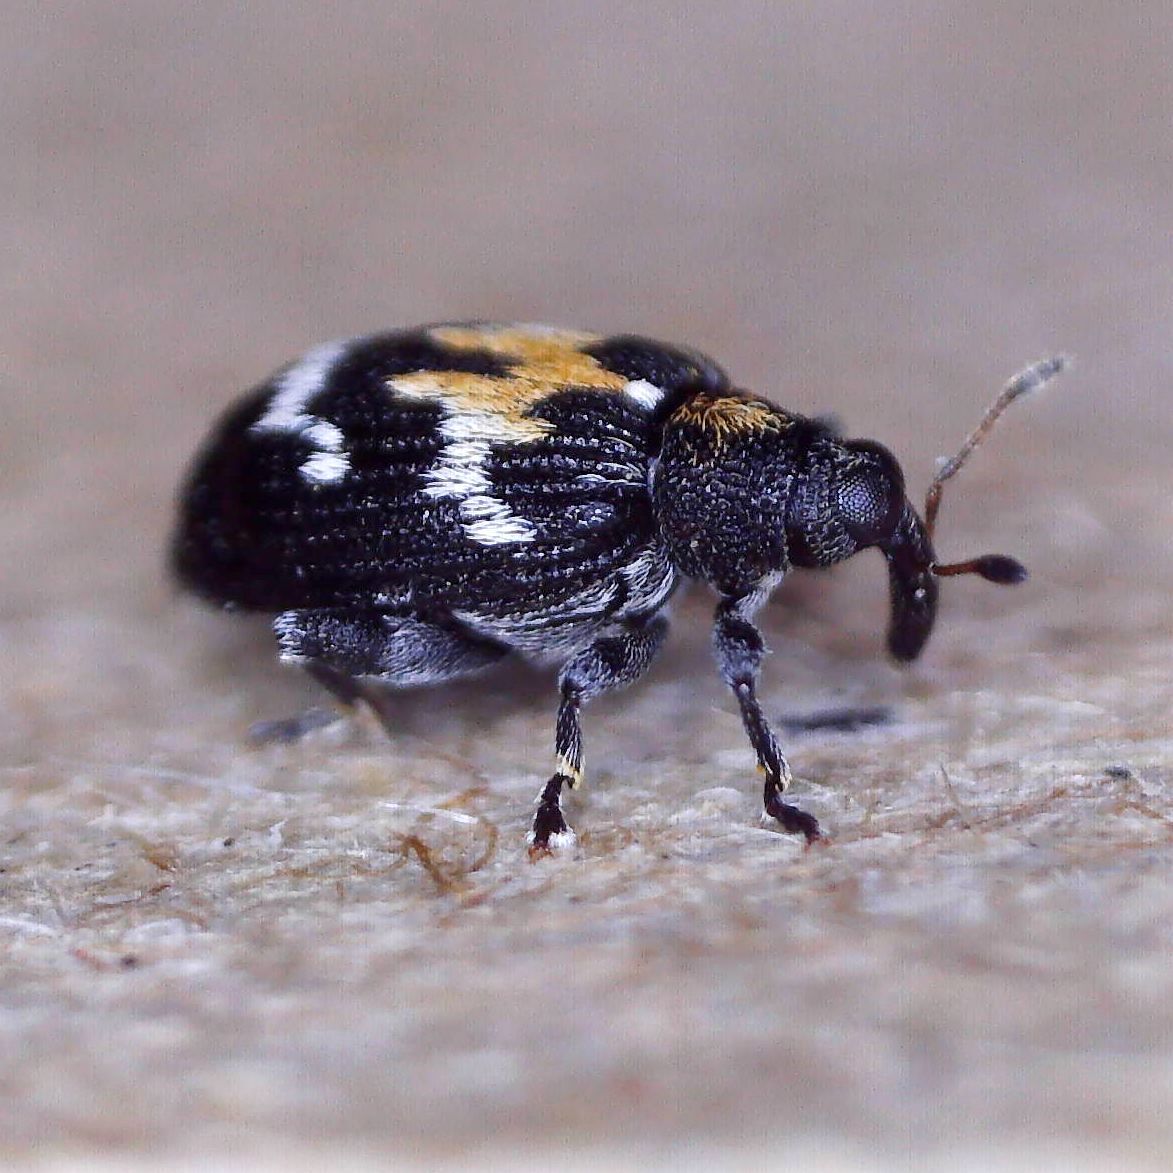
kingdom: Animalia
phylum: Arthropoda
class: Insecta
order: Coleoptera
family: Curculionidae
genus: Tachyerges
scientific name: Tachyerges salicis
